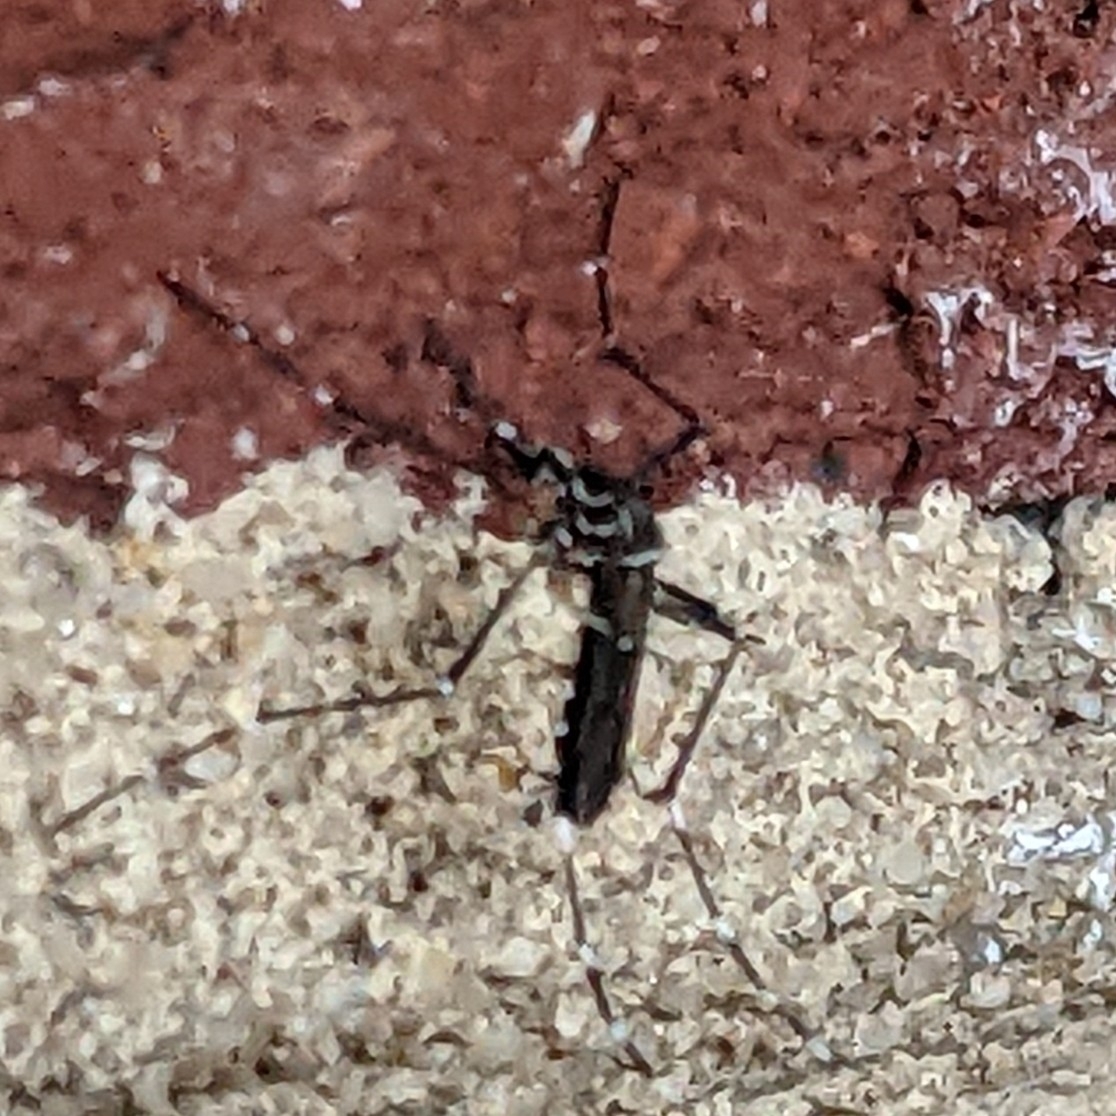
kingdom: Animalia
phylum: Arthropoda
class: Insecta
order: Diptera
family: Culicidae
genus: Aedes
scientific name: Aedes aegypti
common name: Yellow fever mosquito
